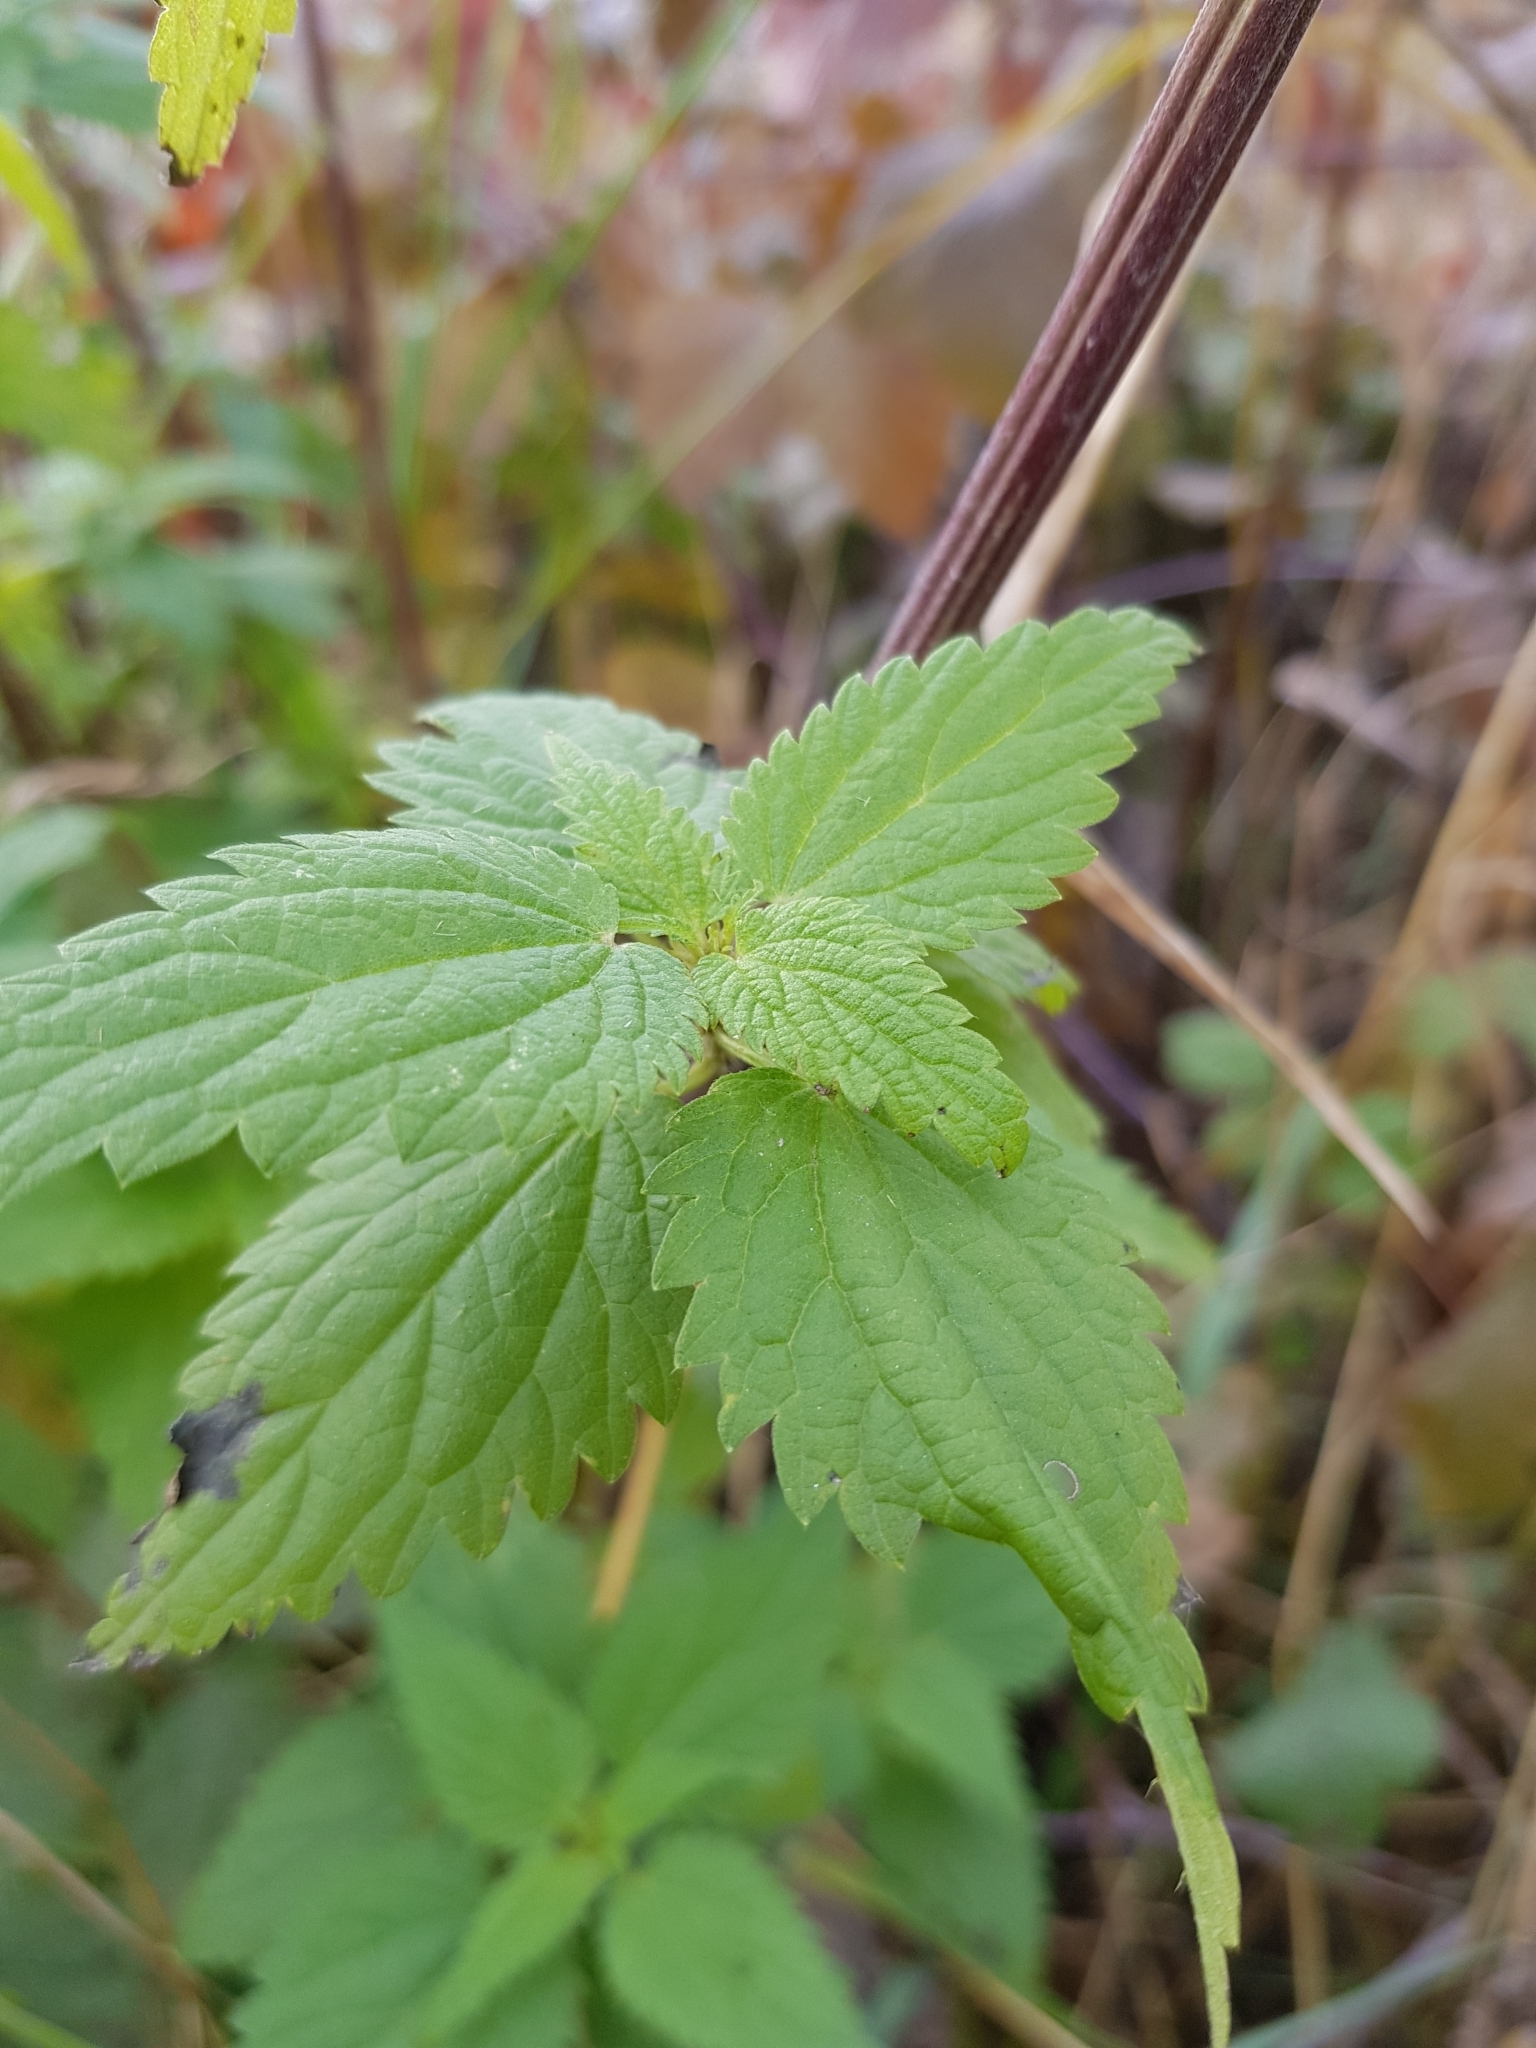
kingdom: Plantae
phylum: Tracheophyta
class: Magnoliopsida
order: Rosales
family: Urticaceae
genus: Urtica
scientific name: Urtica dioica
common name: Common nettle
